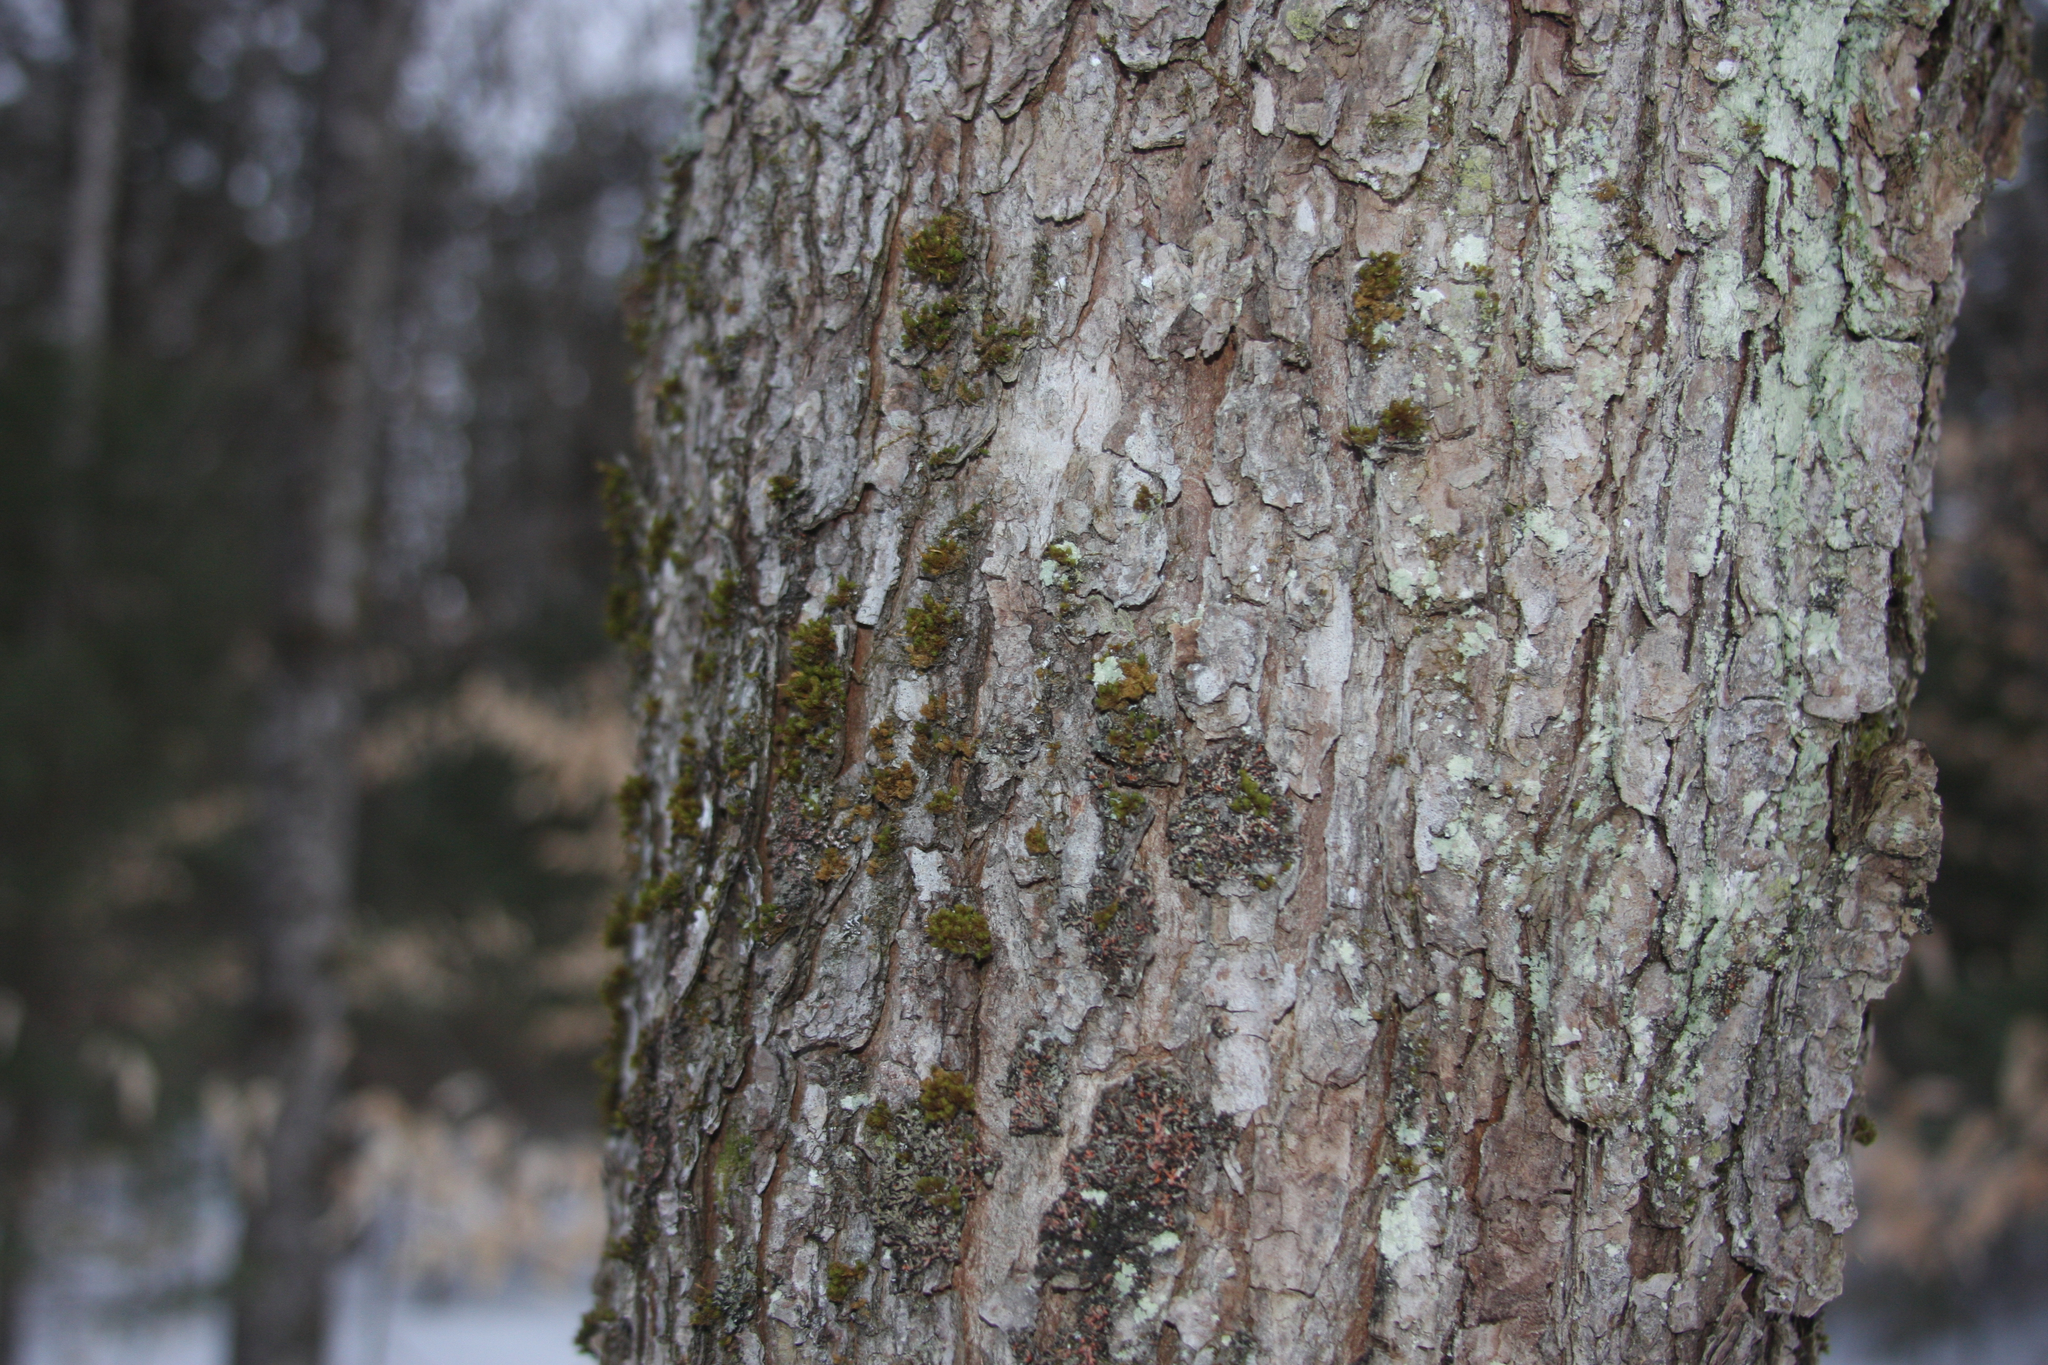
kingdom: Plantae
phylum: Bryophyta
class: Bryopsida
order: Orthotrichales
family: Orthotrichaceae
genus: Ulota
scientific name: Ulota crispa
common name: Crisped pincushion moss
